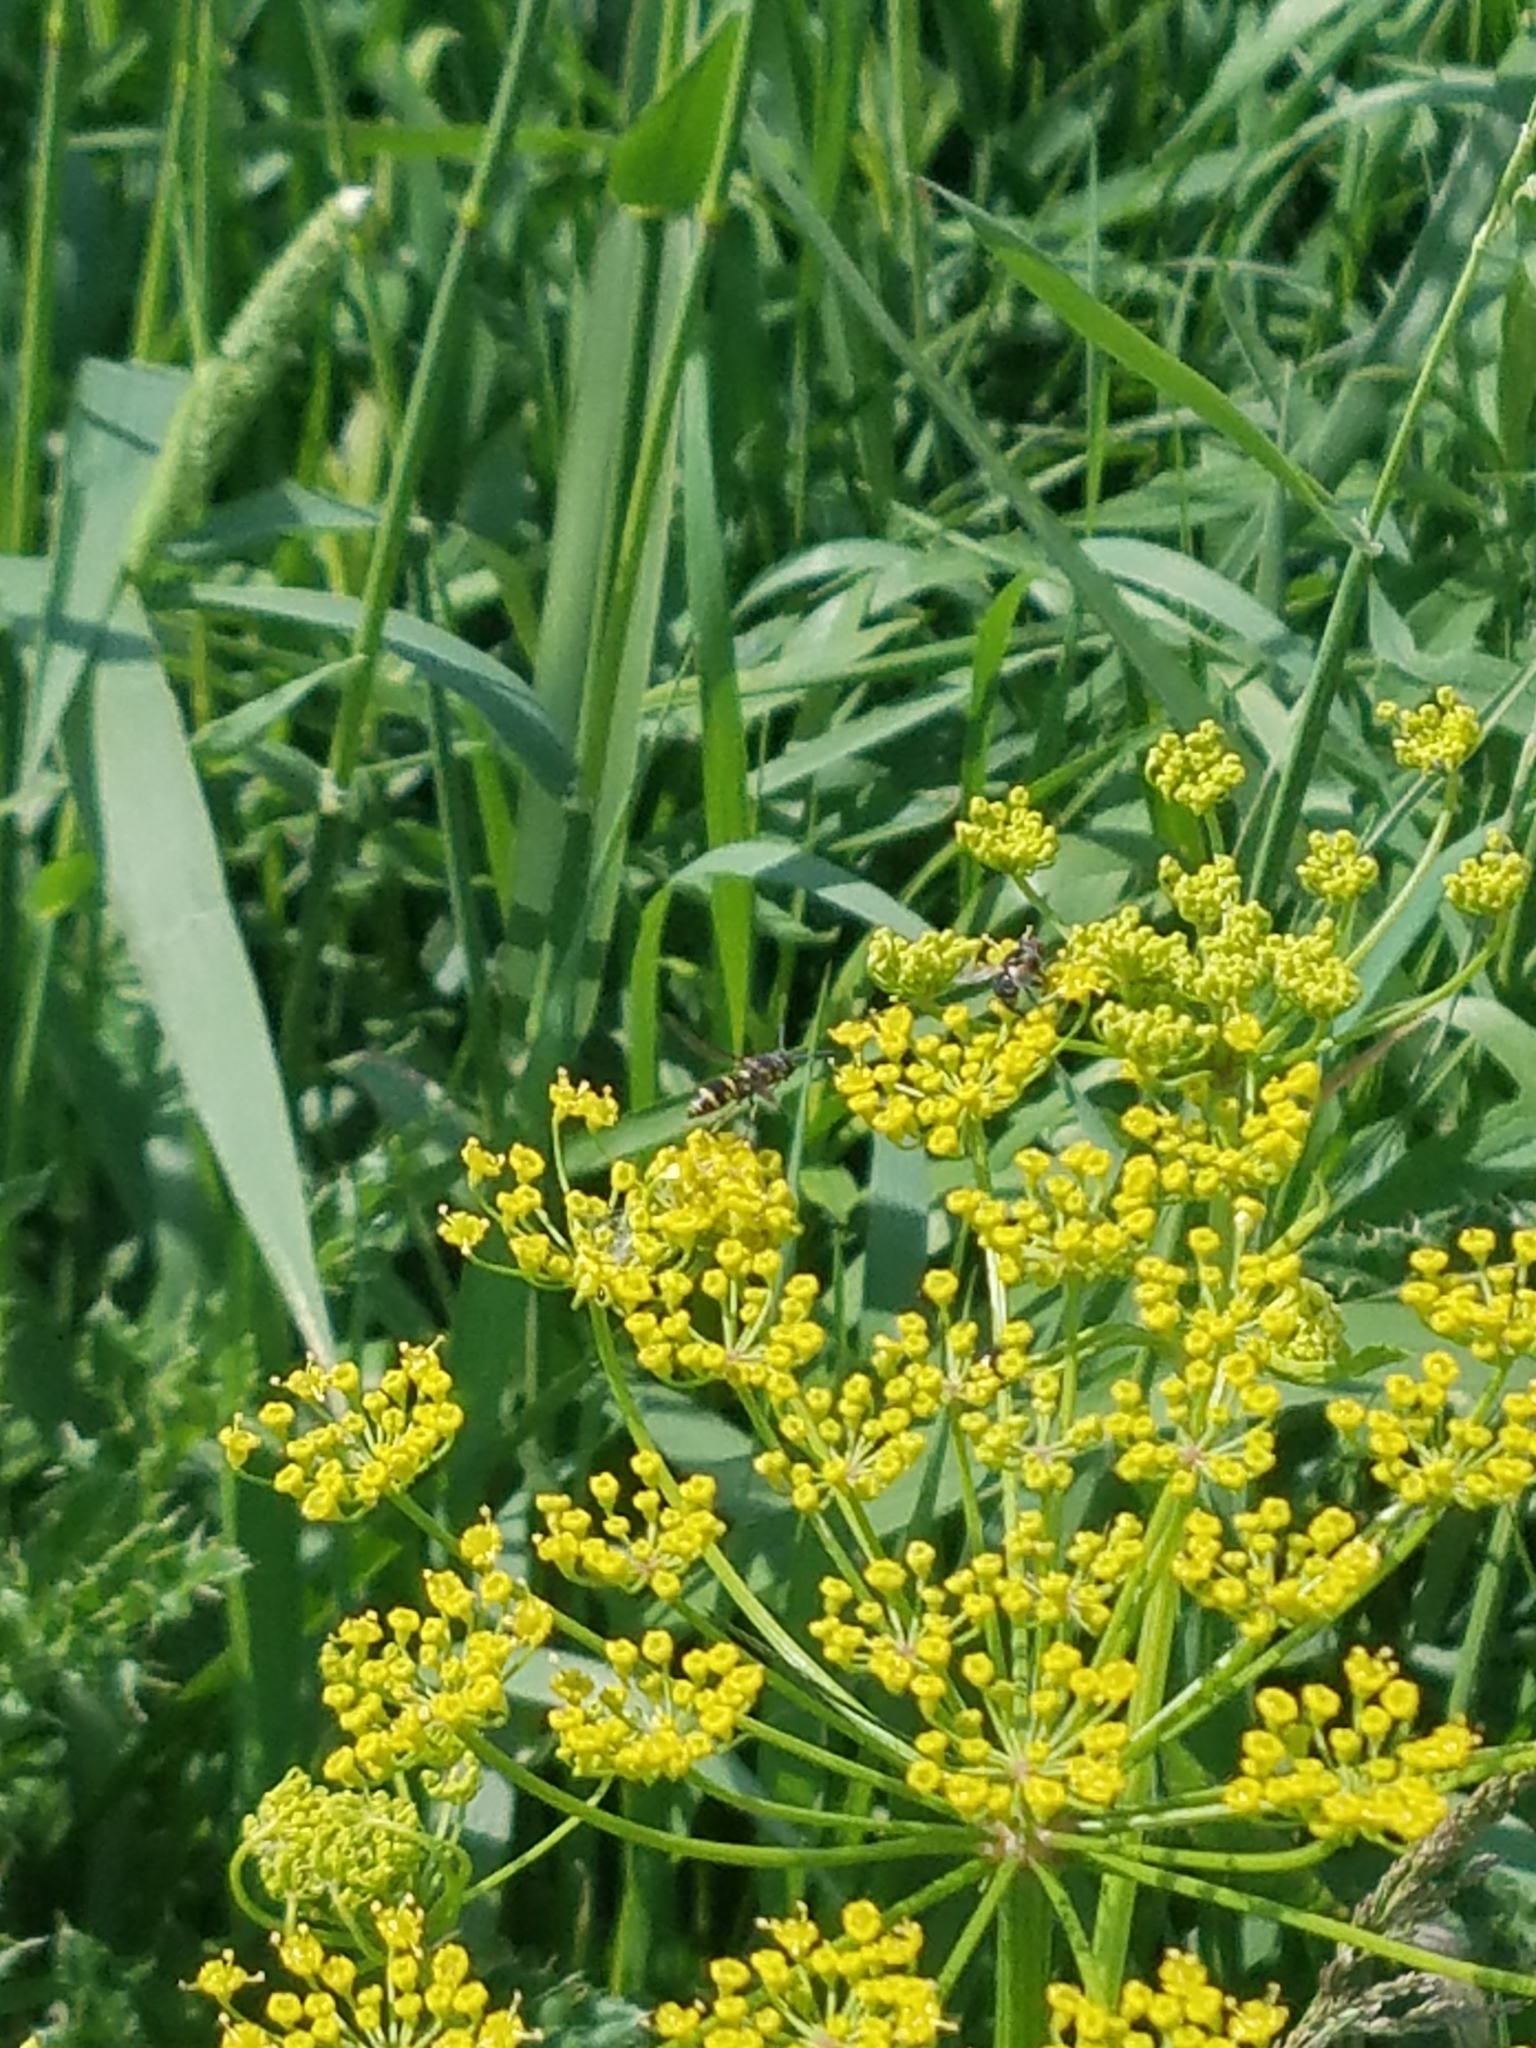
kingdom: Plantae
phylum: Tracheophyta
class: Magnoliopsida
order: Apiales
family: Apiaceae
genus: Pastinaca
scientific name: Pastinaca sativa
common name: Wild parsnip
